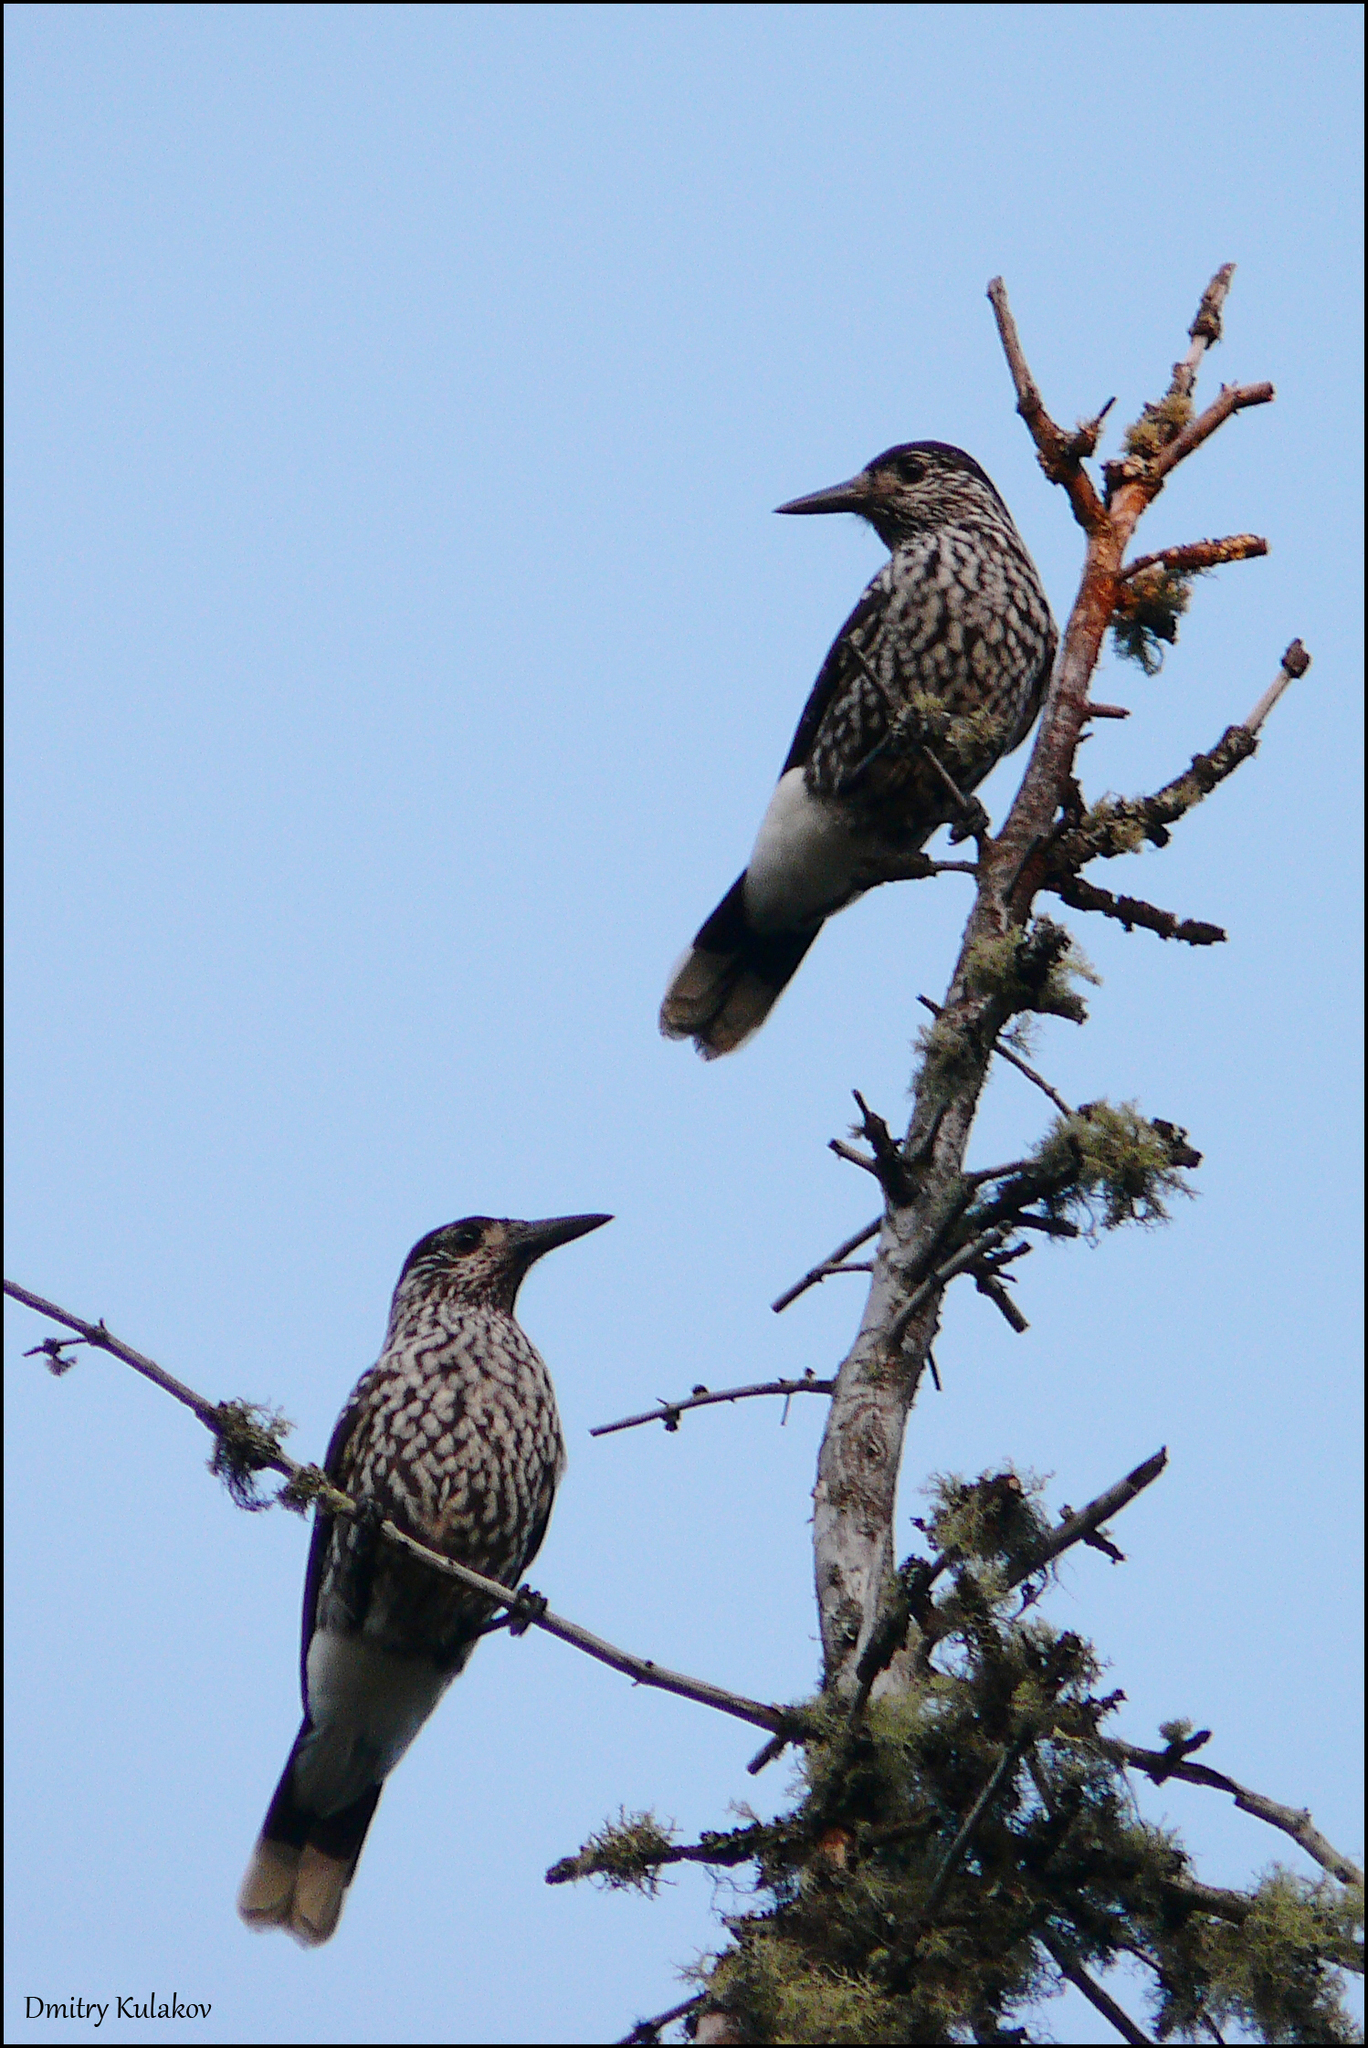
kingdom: Animalia
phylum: Chordata
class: Aves
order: Passeriformes
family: Corvidae
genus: Nucifraga
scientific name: Nucifraga caryocatactes
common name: Spotted nutcracker
